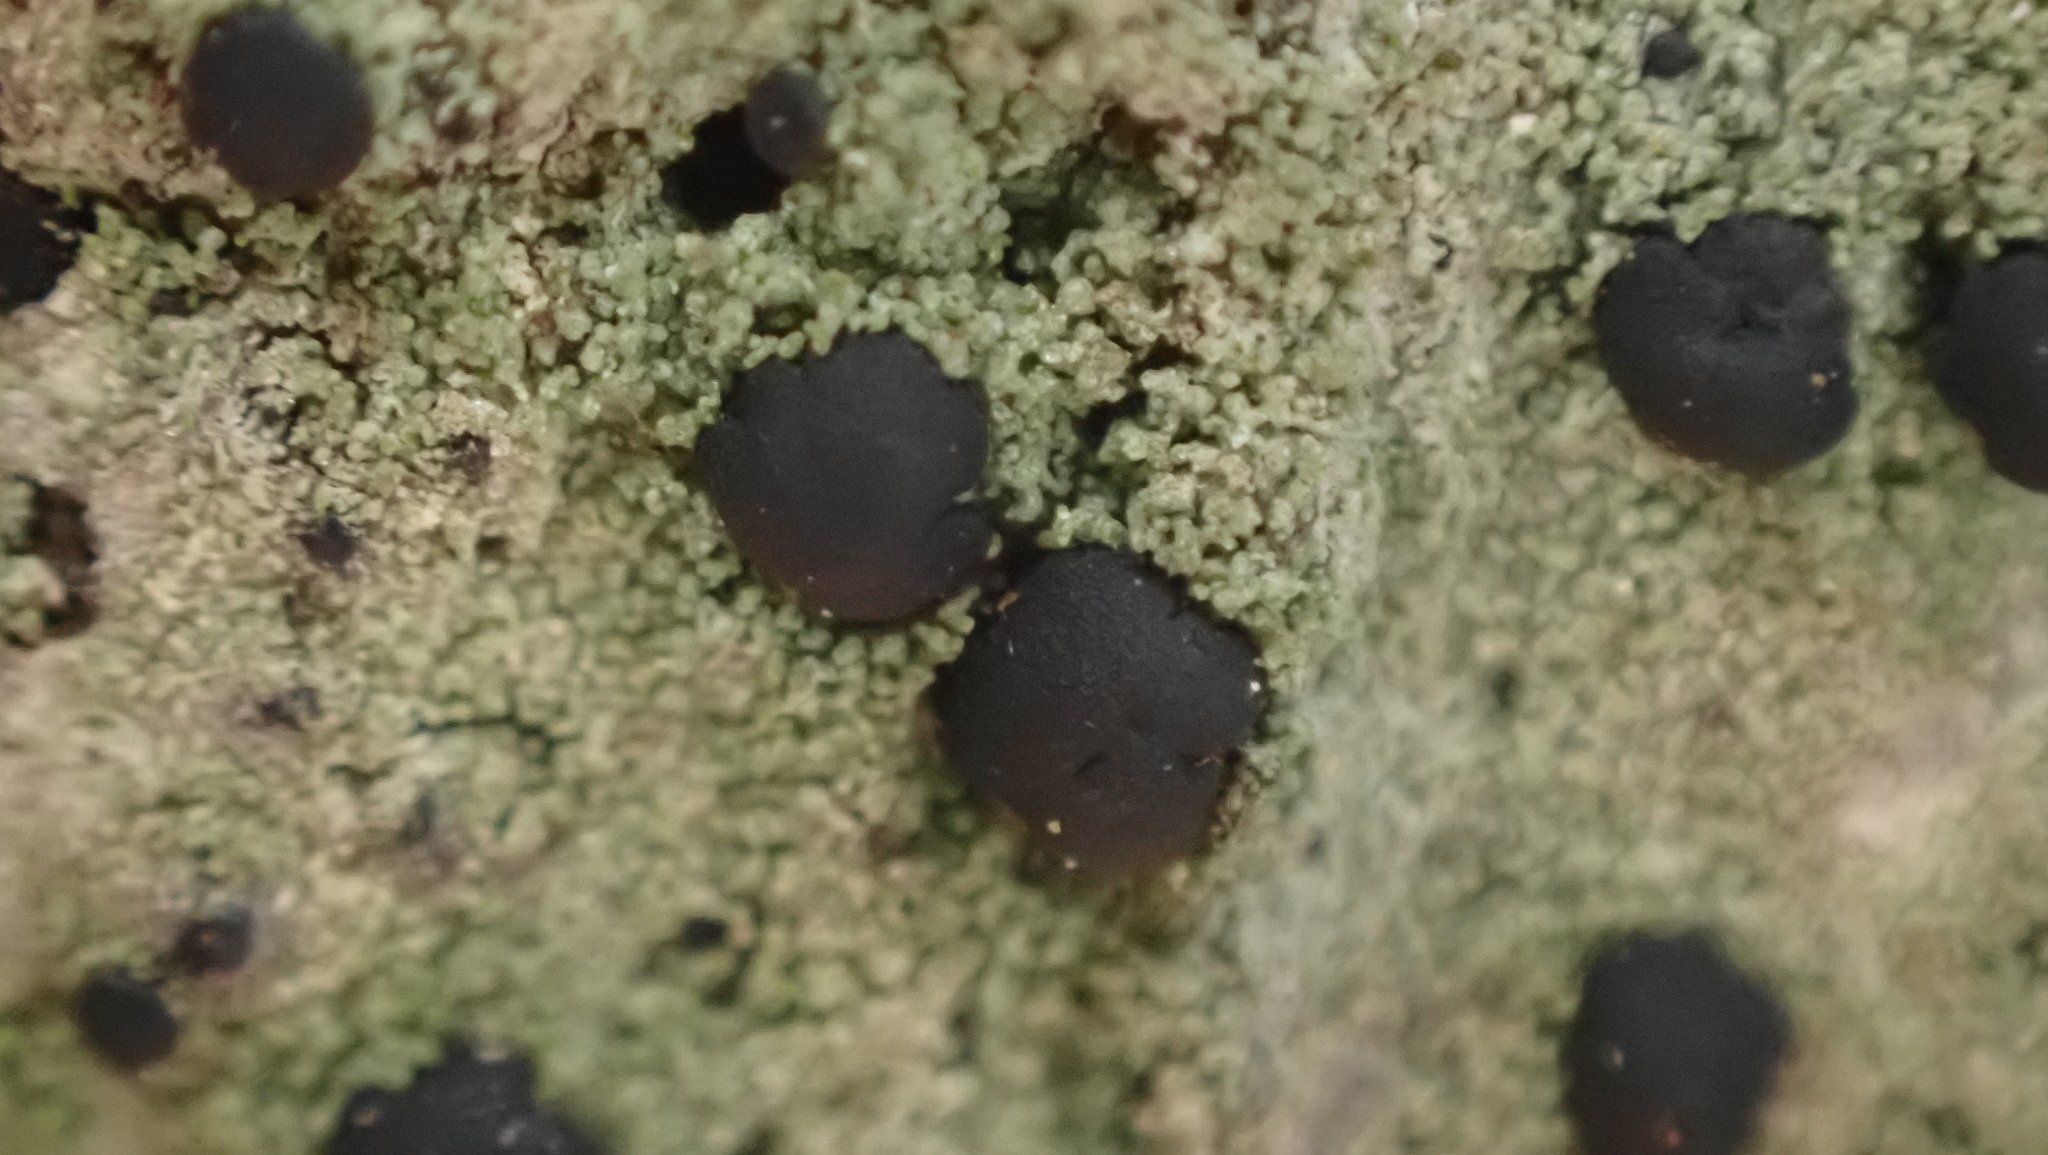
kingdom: Fungi
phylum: Ascomycota
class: Lecanoromycetes
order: Lecanorales
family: Ramalinaceae
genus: Bacidia
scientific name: Bacidia schweinitzii
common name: Surprise lichen
